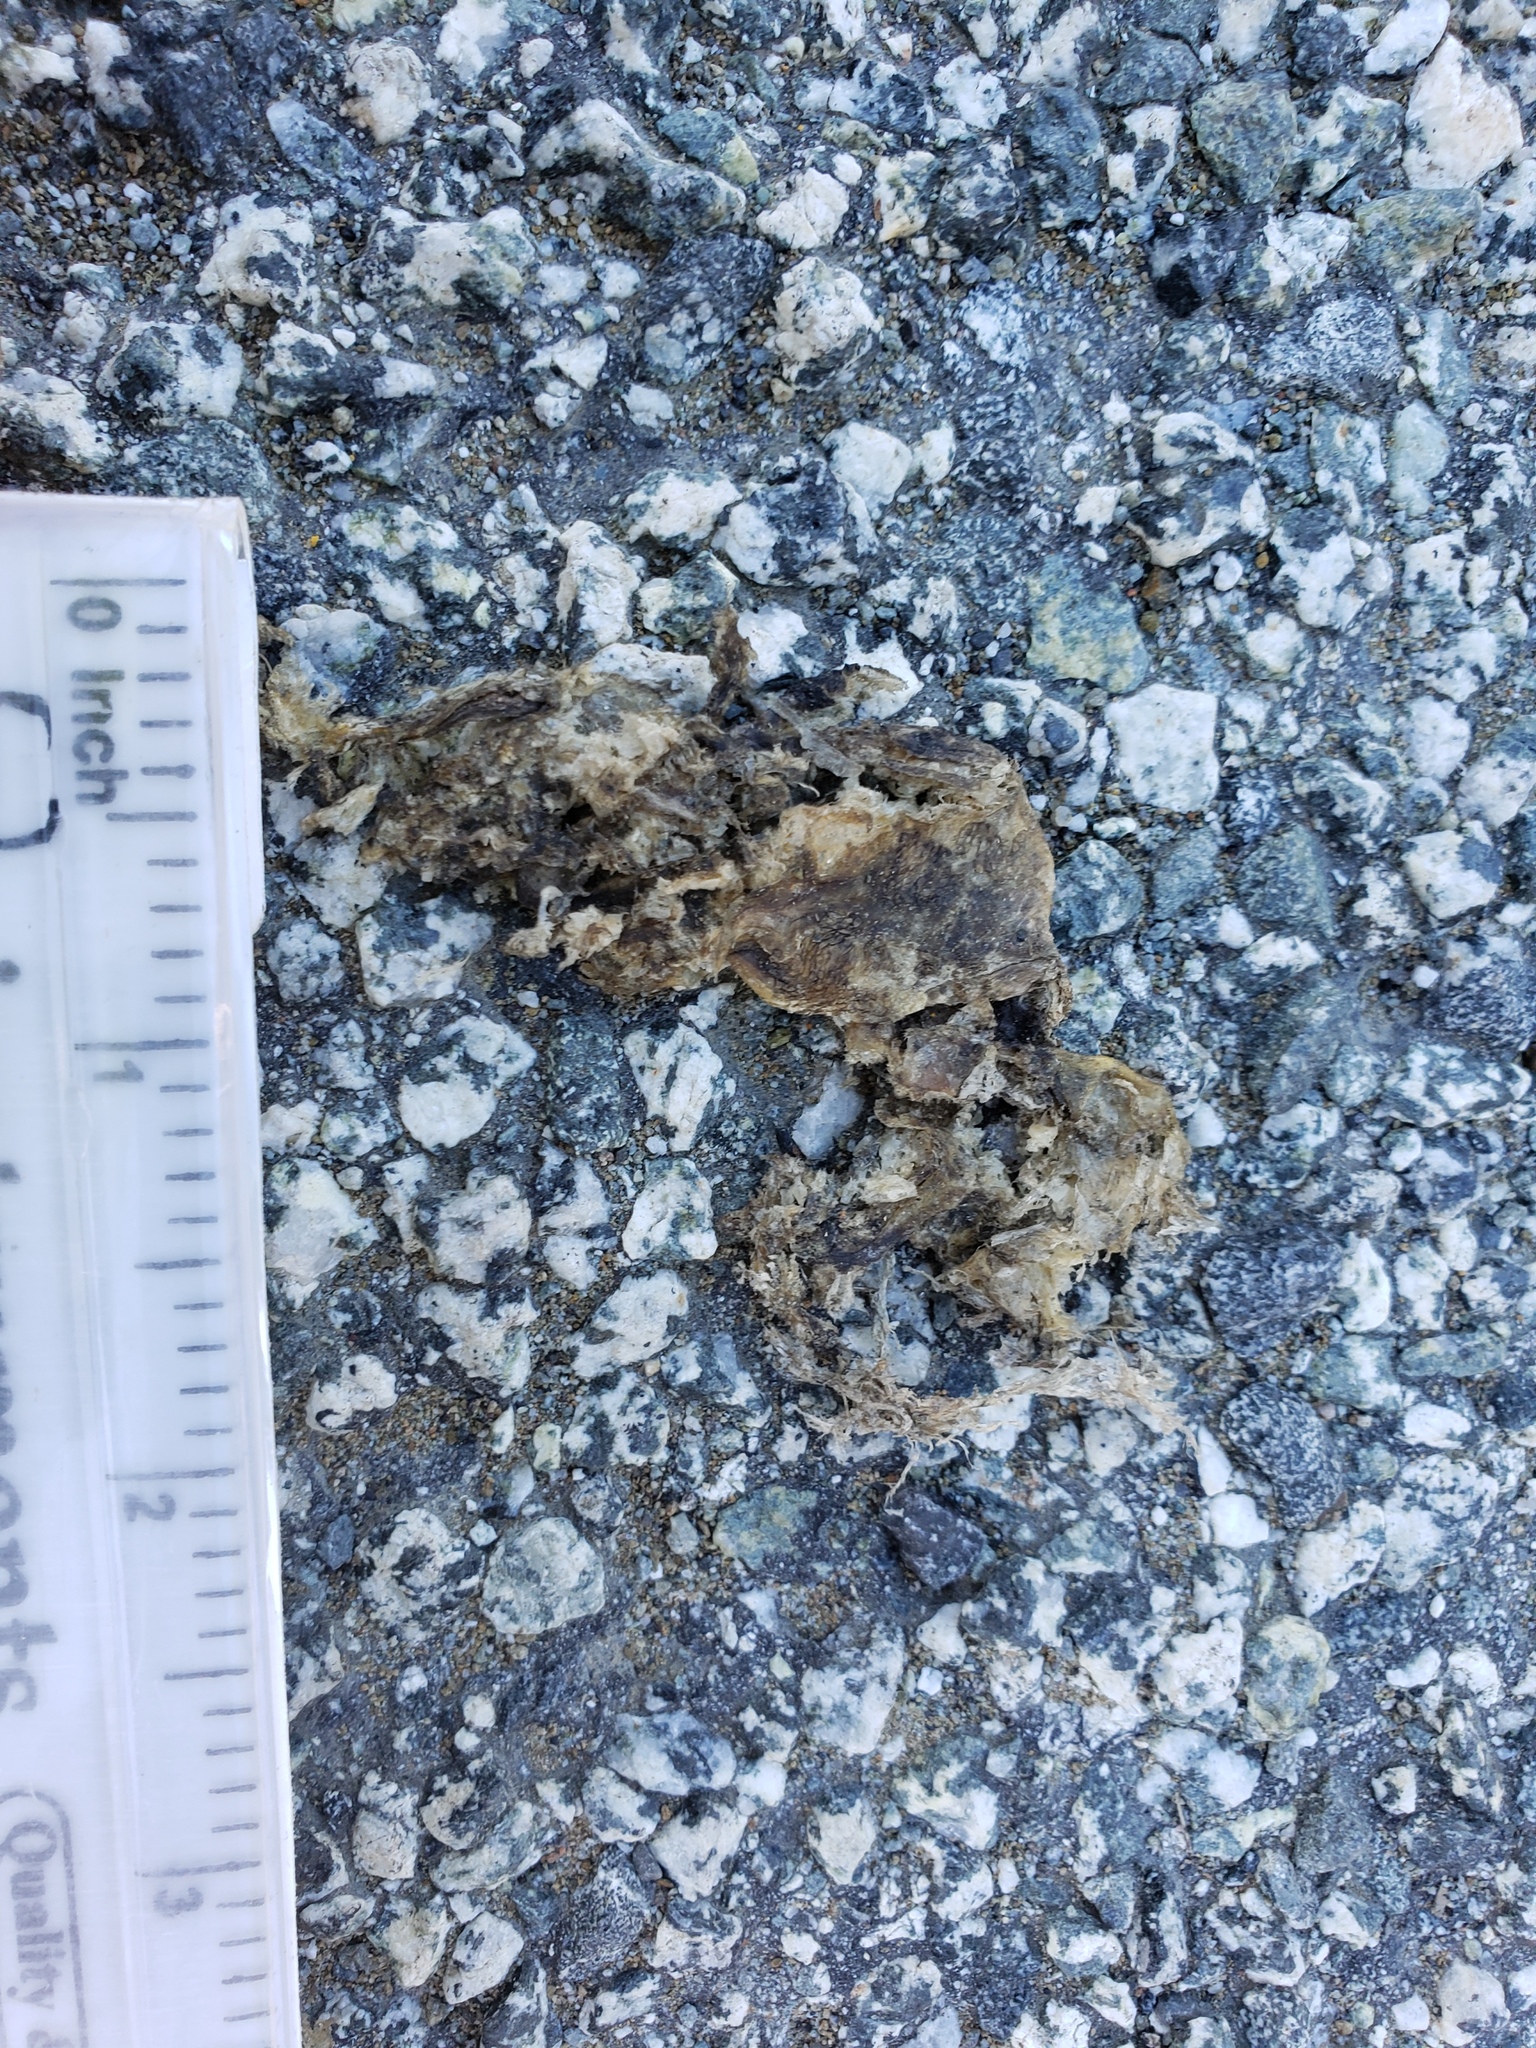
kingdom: Animalia
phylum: Chordata
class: Amphibia
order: Caudata
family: Salamandridae
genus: Taricha
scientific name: Taricha
